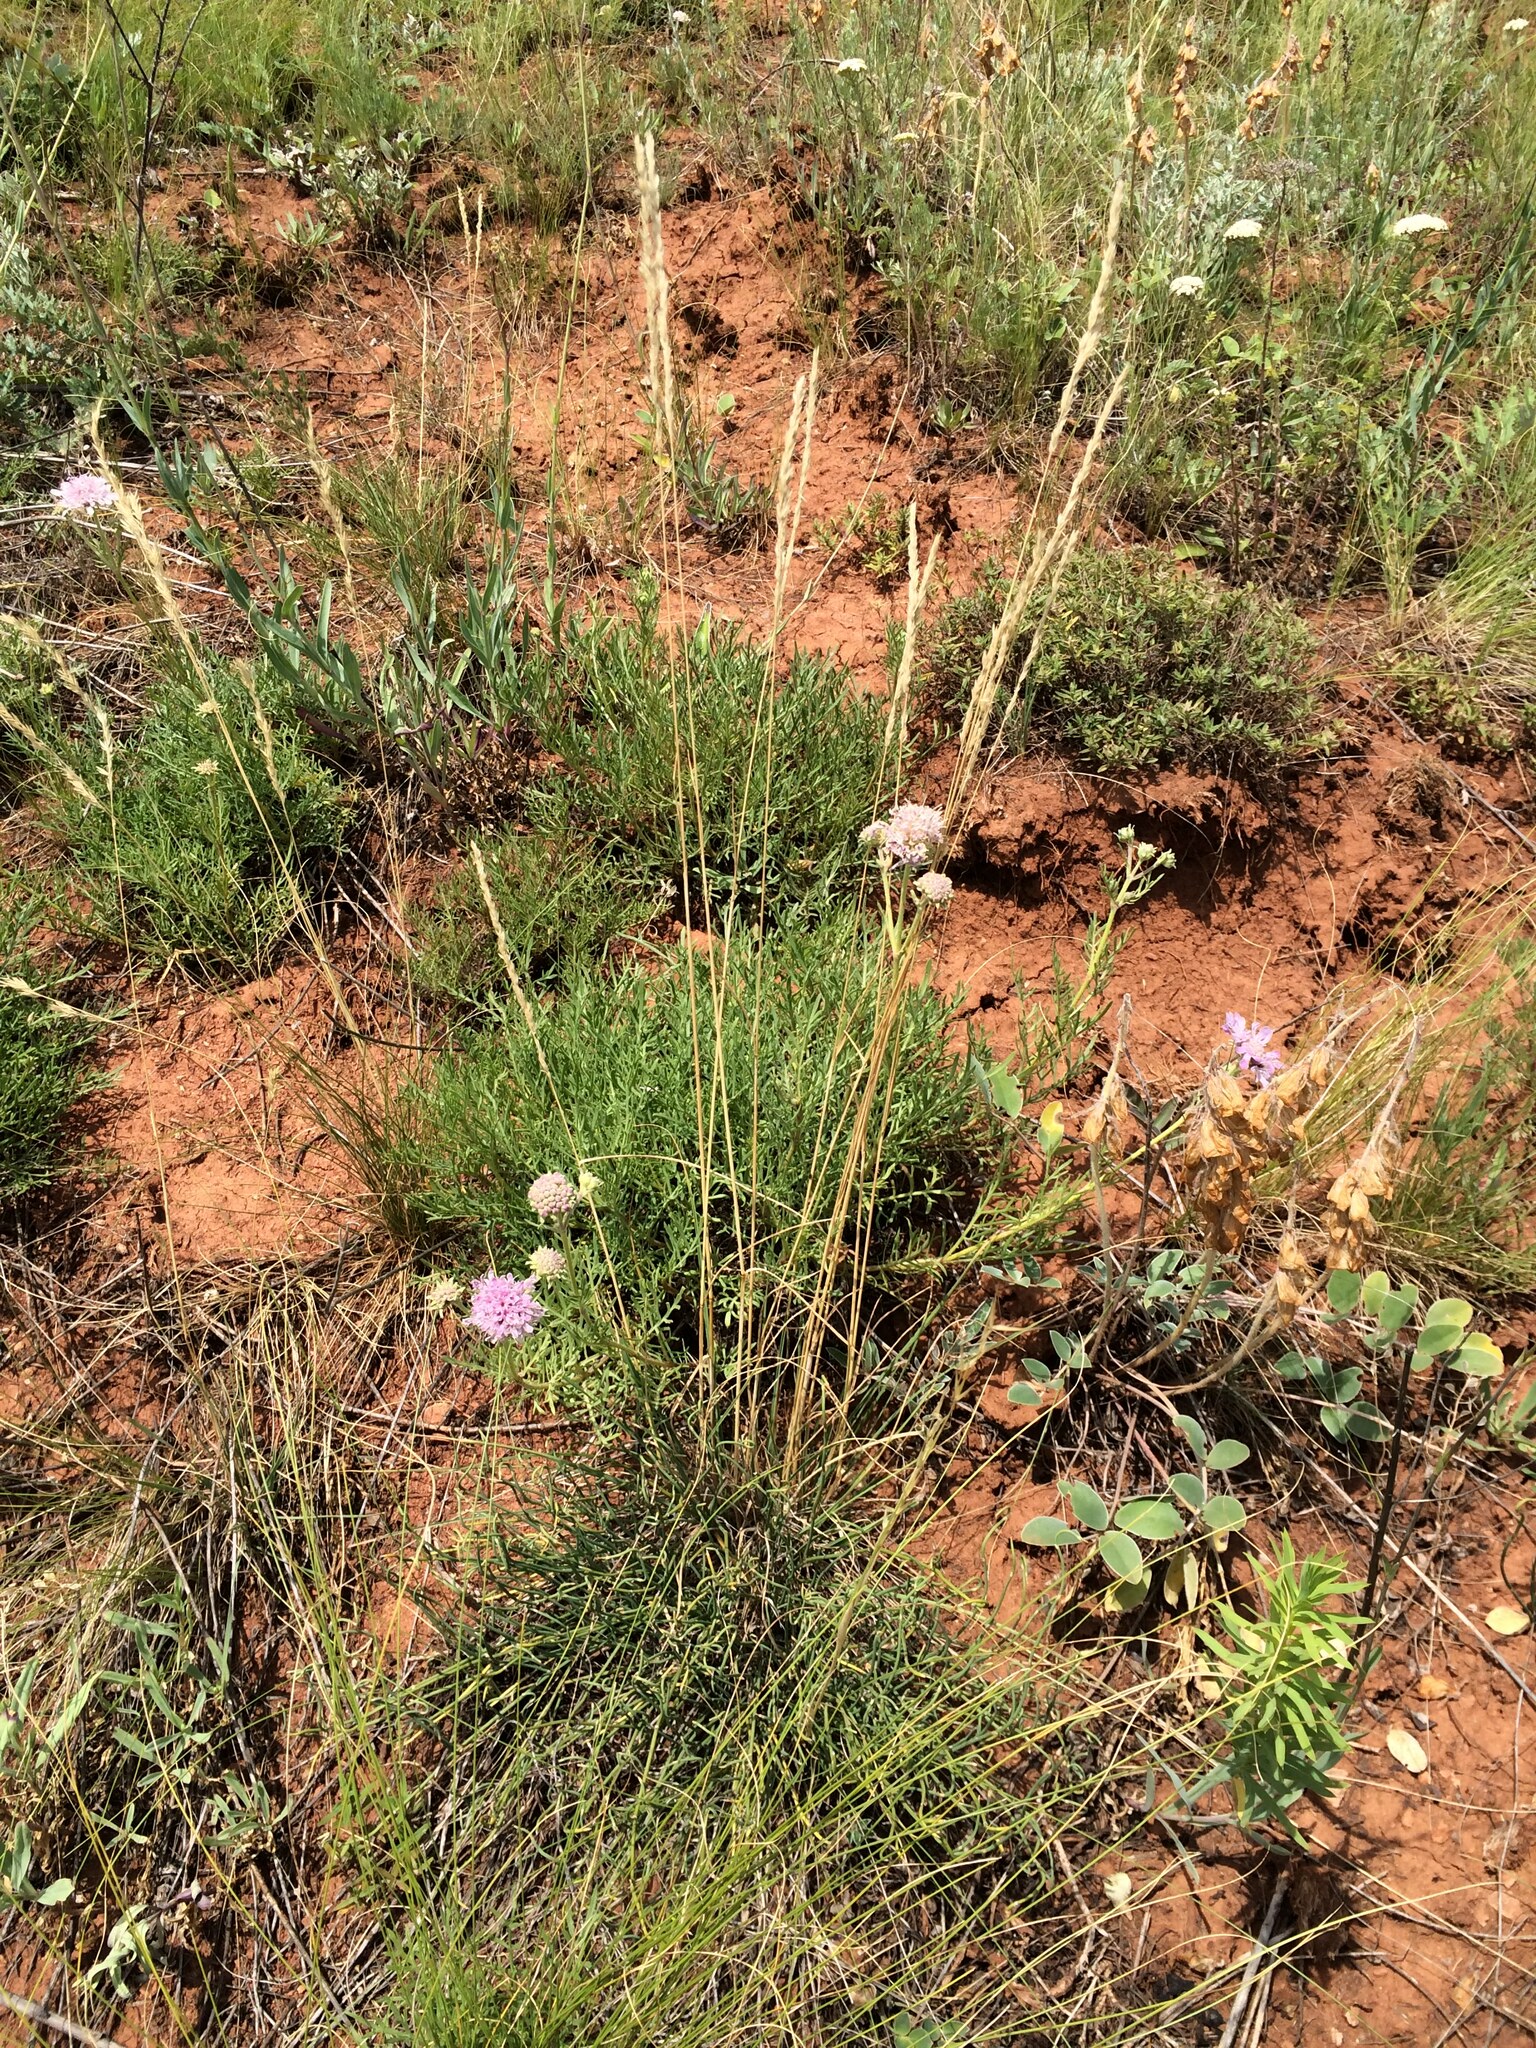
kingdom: Plantae
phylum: Tracheophyta
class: Magnoliopsida
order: Dipsacales
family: Caprifoliaceae
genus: Lomelosia
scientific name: Lomelosia isetensis
